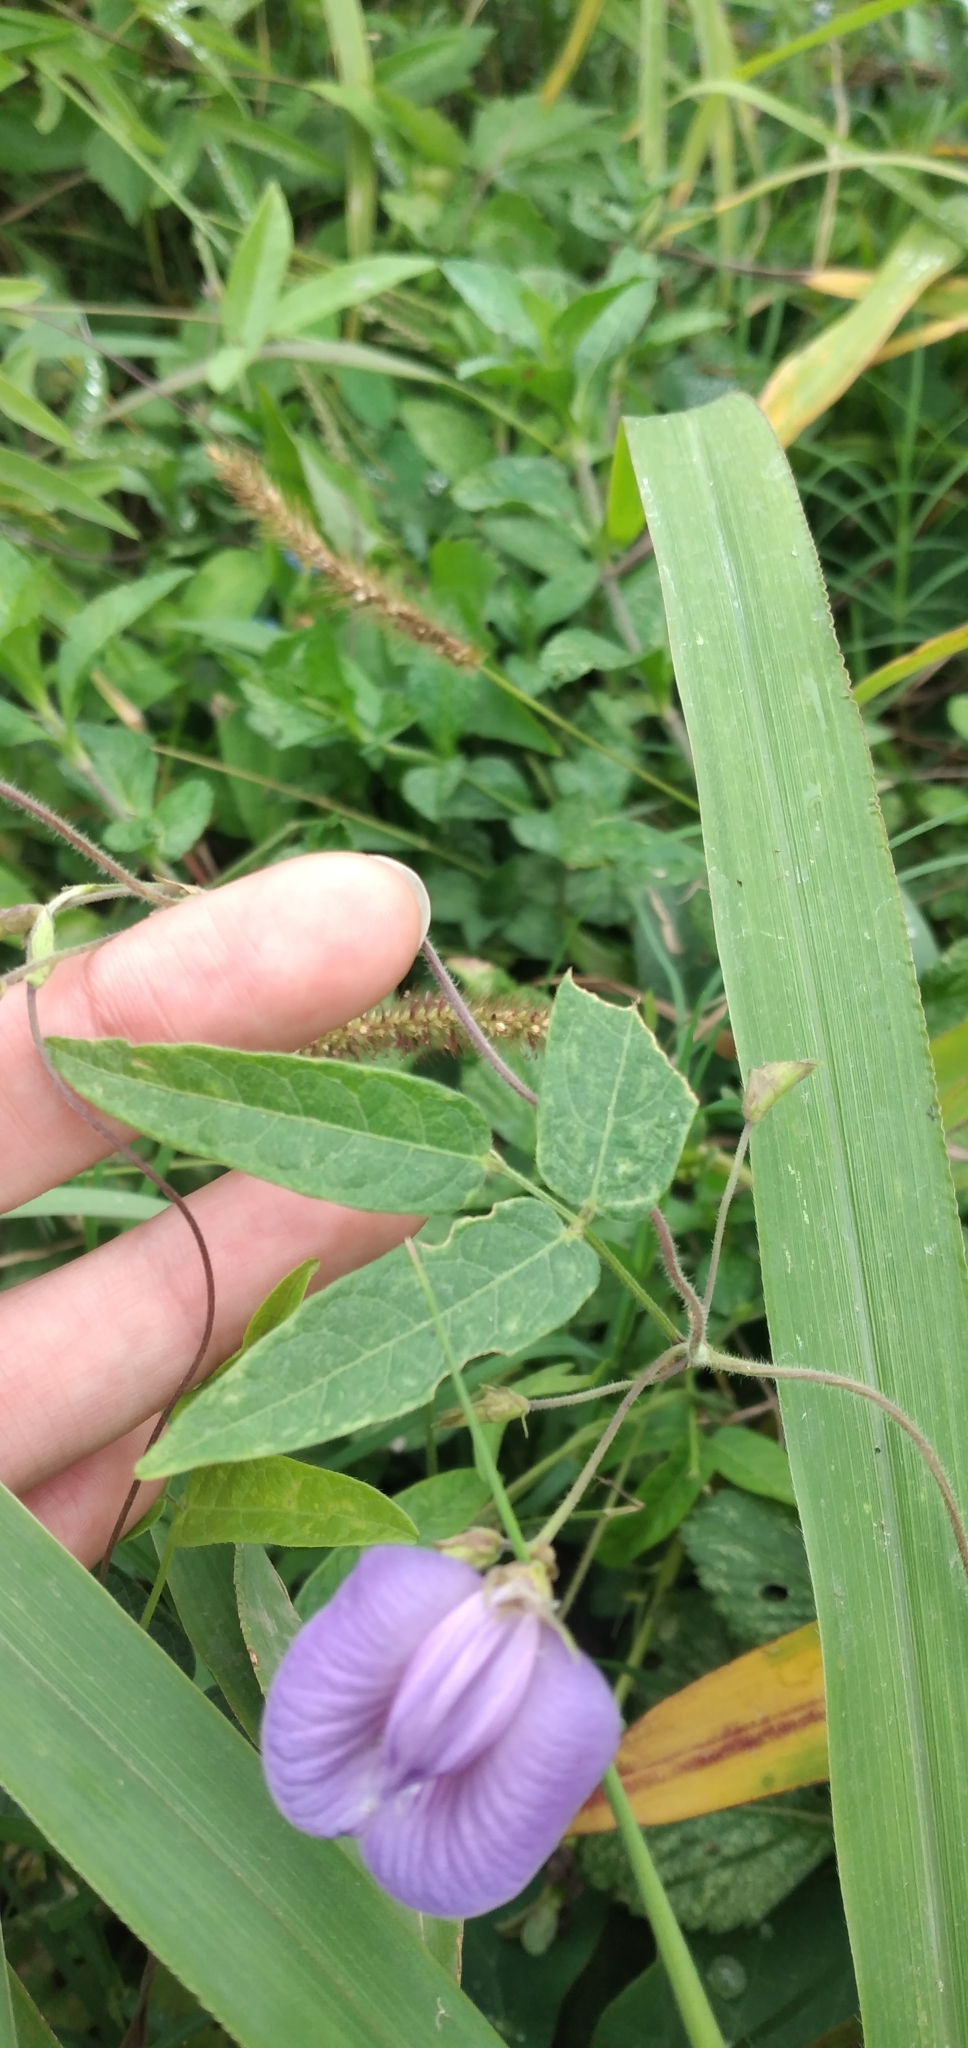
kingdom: Plantae
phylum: Tracheophyta
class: Magnoliopsida
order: Fabales
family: Fabaceae
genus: Centrosema
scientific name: Centrosema virginianum
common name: Butterfly-pea
